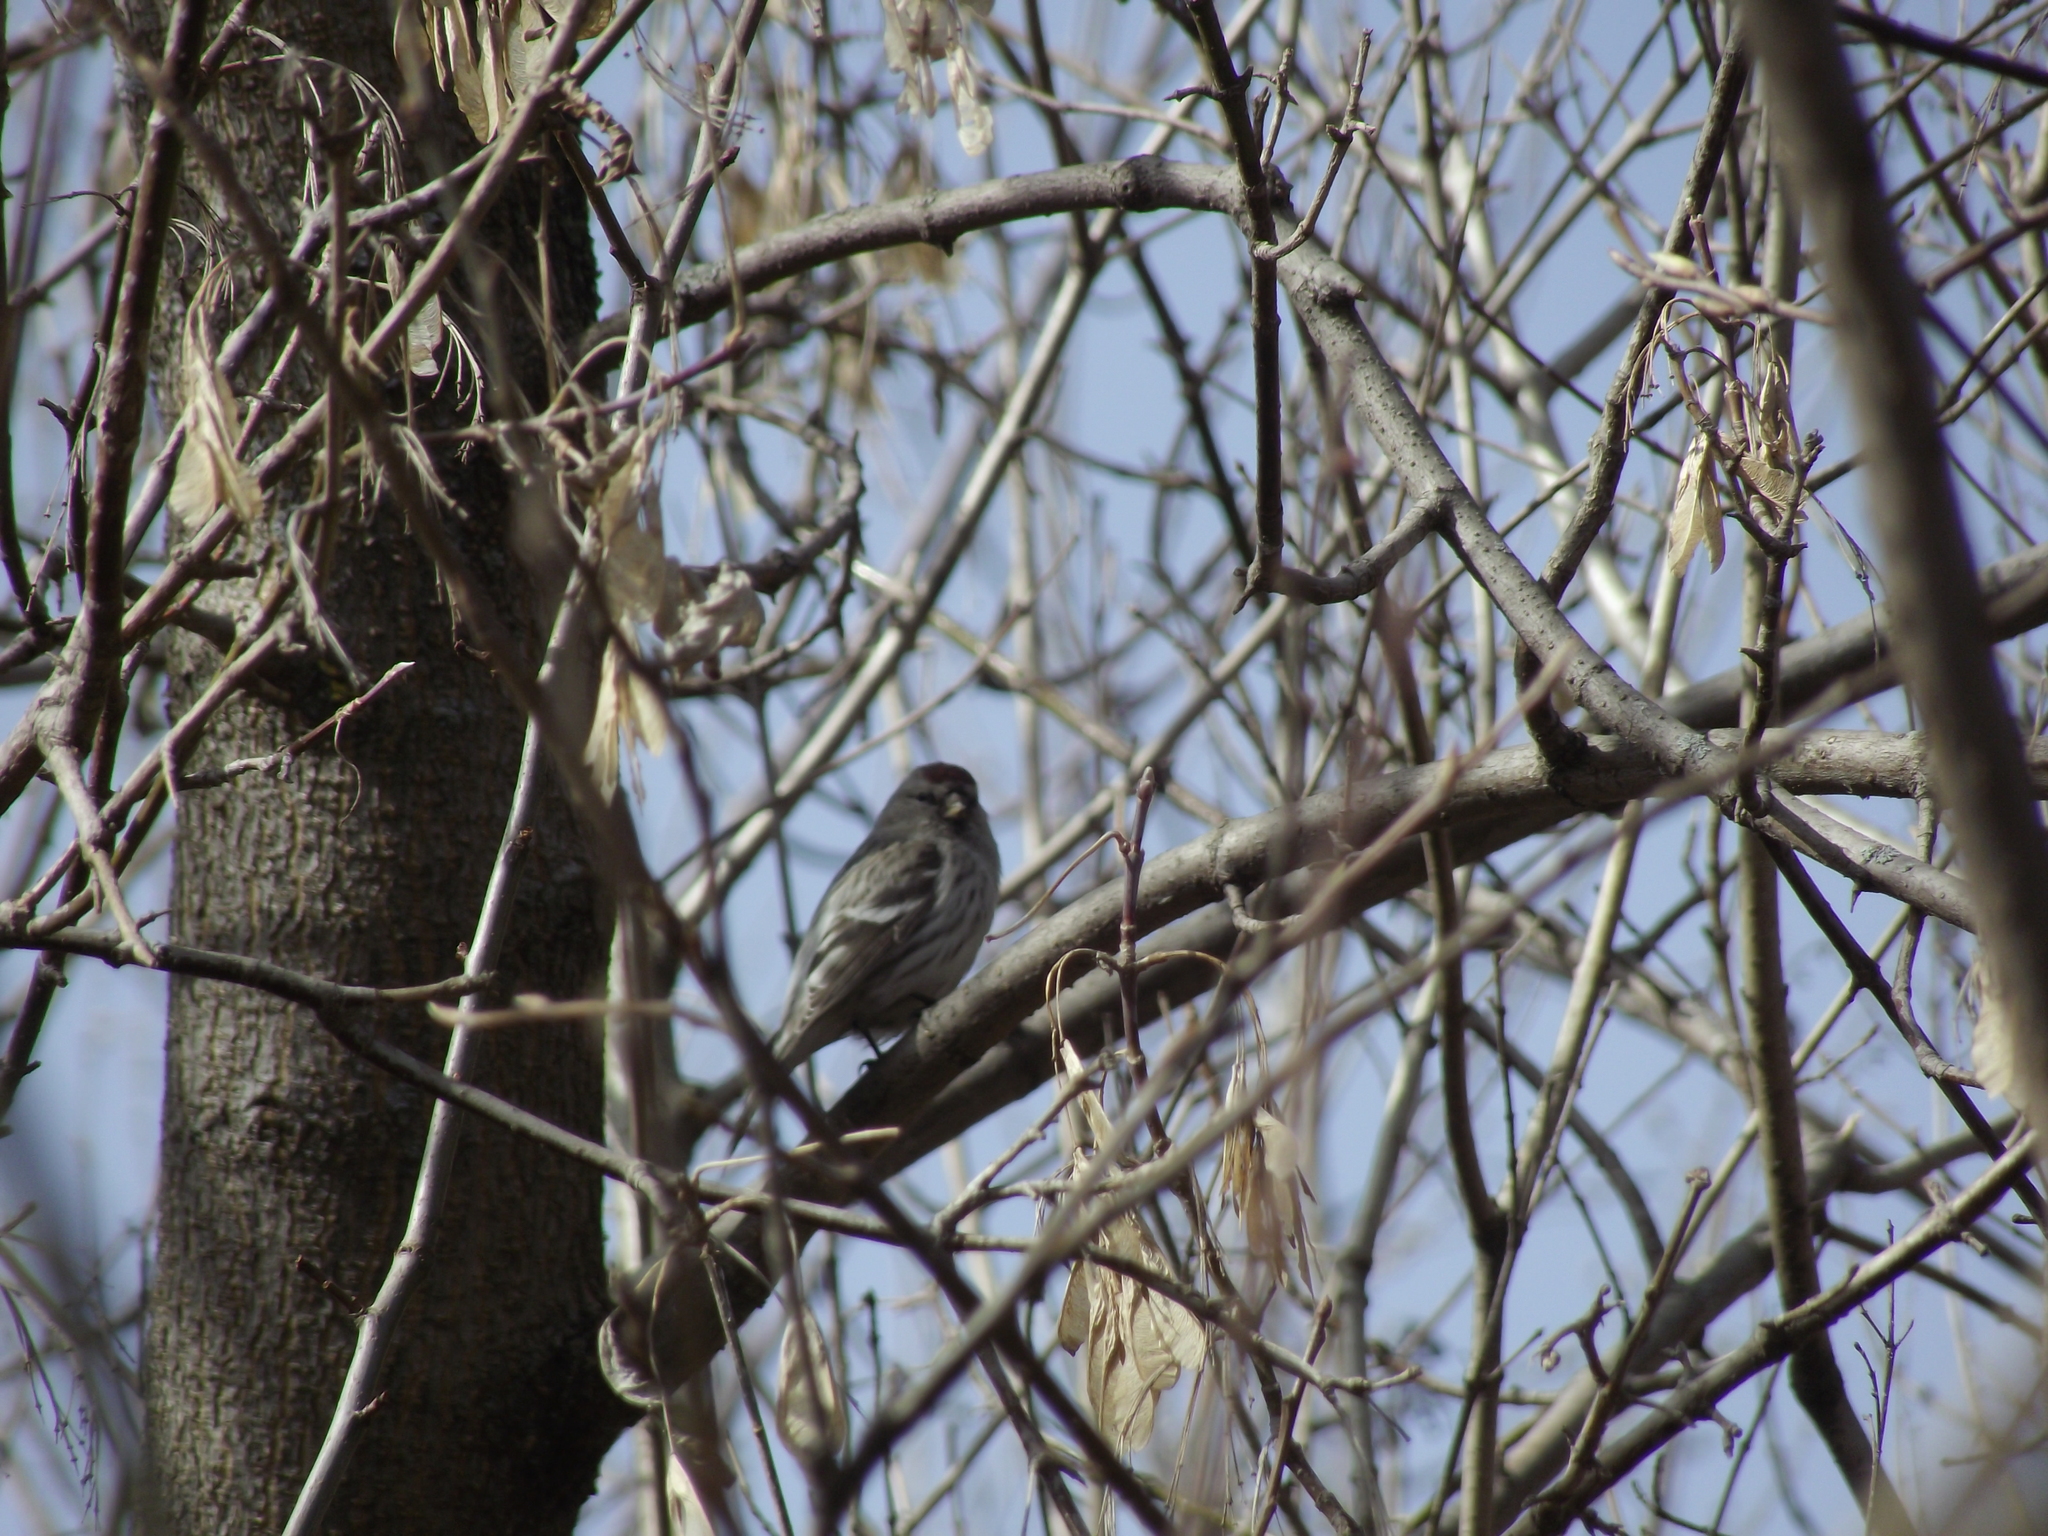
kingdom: Animalia
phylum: Chordata
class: Aves
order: Passeriformes
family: Fringillidae
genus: Acanthis
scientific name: Acanthis flammea
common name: Common redpoll
